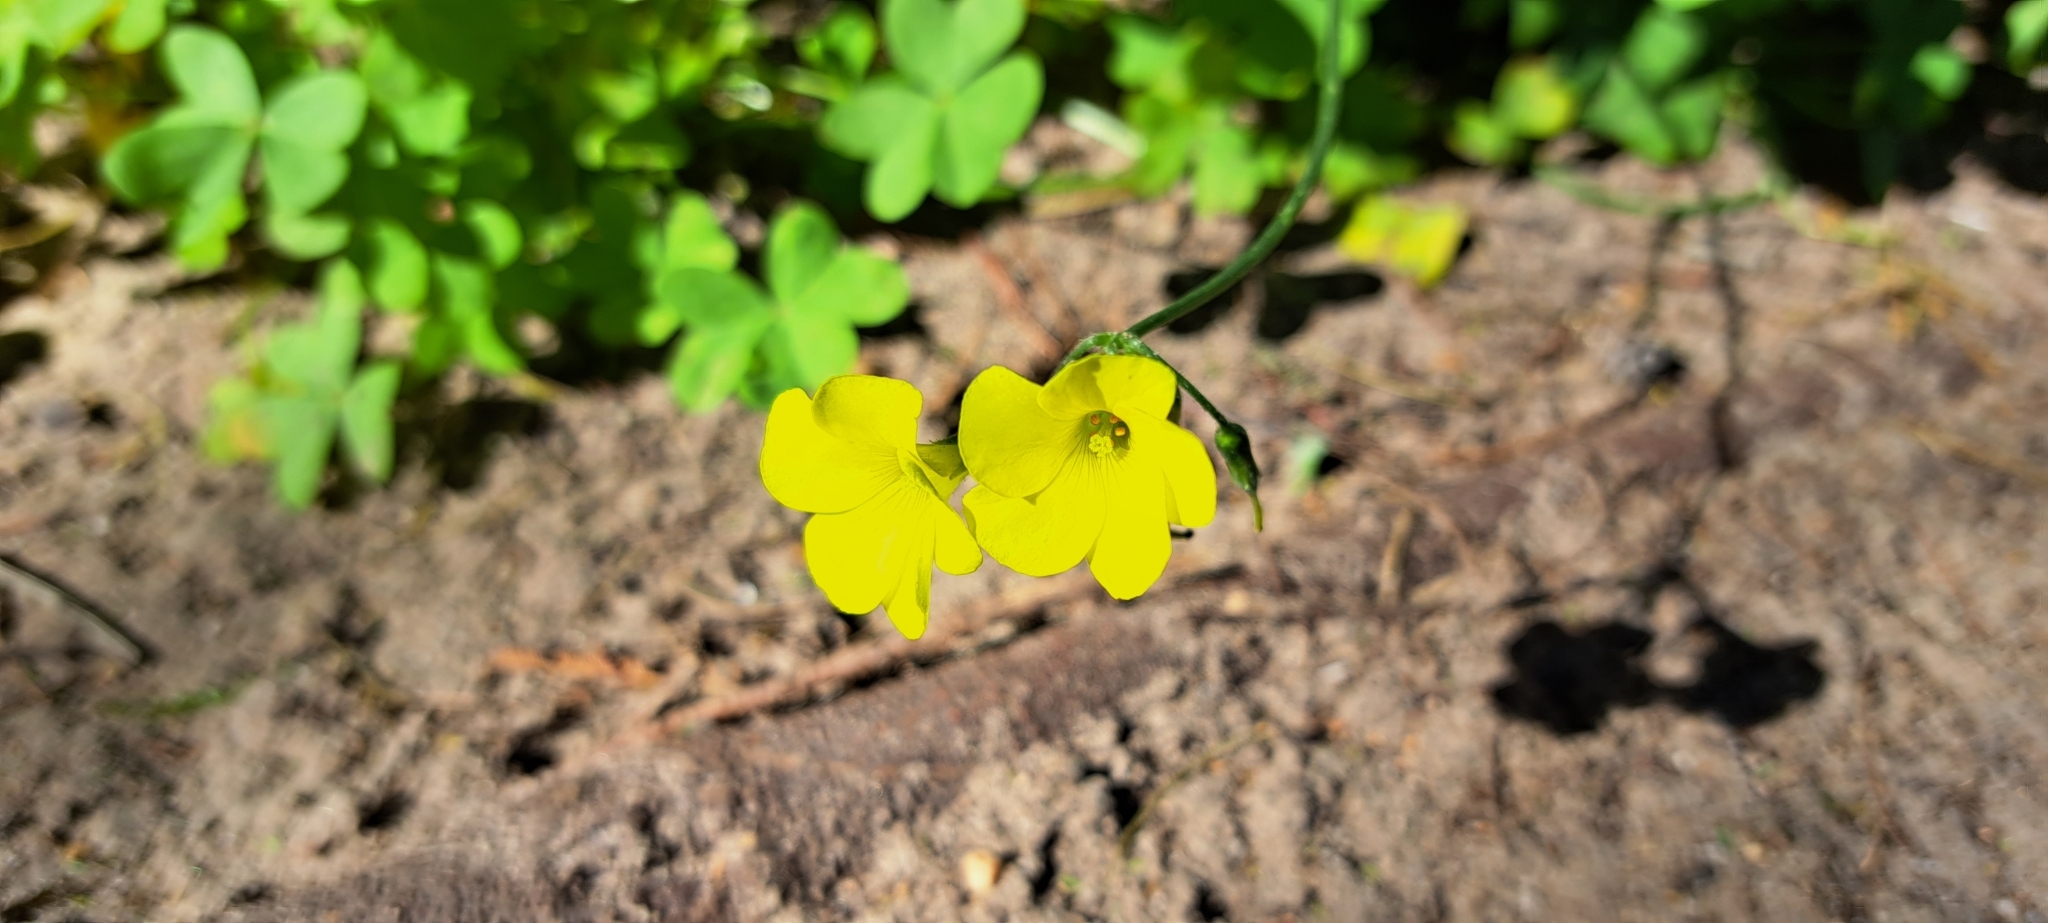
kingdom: Plantae
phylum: Tracheophyta
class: Magnoliopsida
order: Oxalidales
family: Oxalidaceae
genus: Oxalis
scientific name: Oxalis pes-caprae
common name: Bermuda-buttercup
